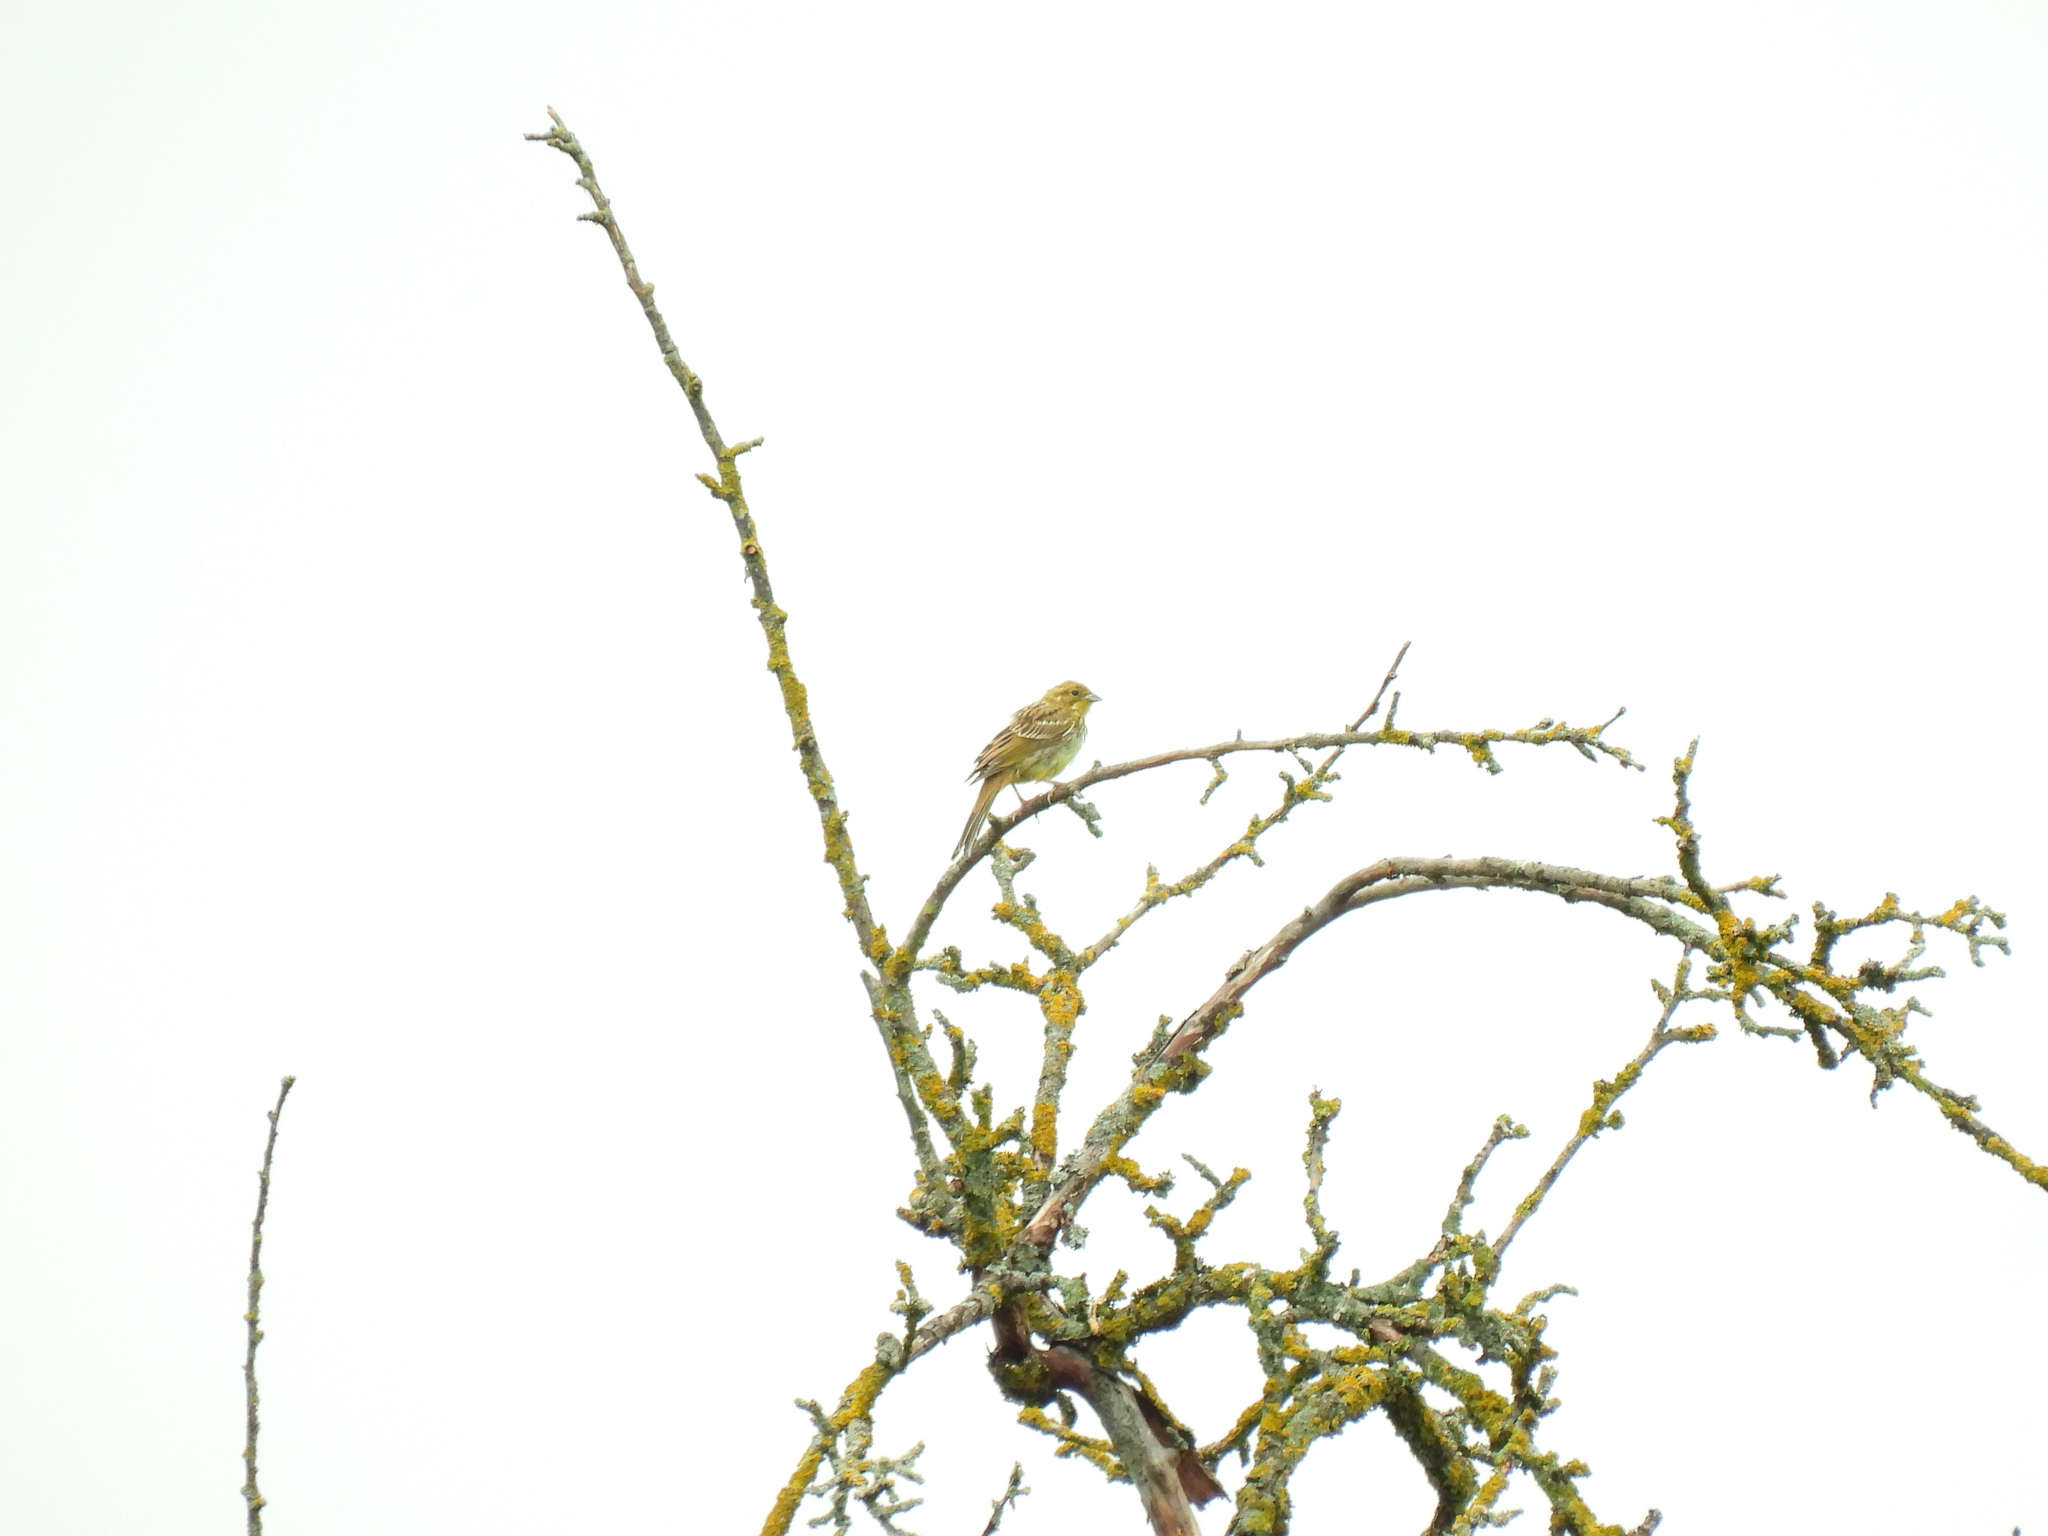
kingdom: Animalia
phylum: Chordata
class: Aves
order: Passeriformes
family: Emberizidae
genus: Emberiza
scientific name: Emberiza citrinella
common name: Yellowhammer
